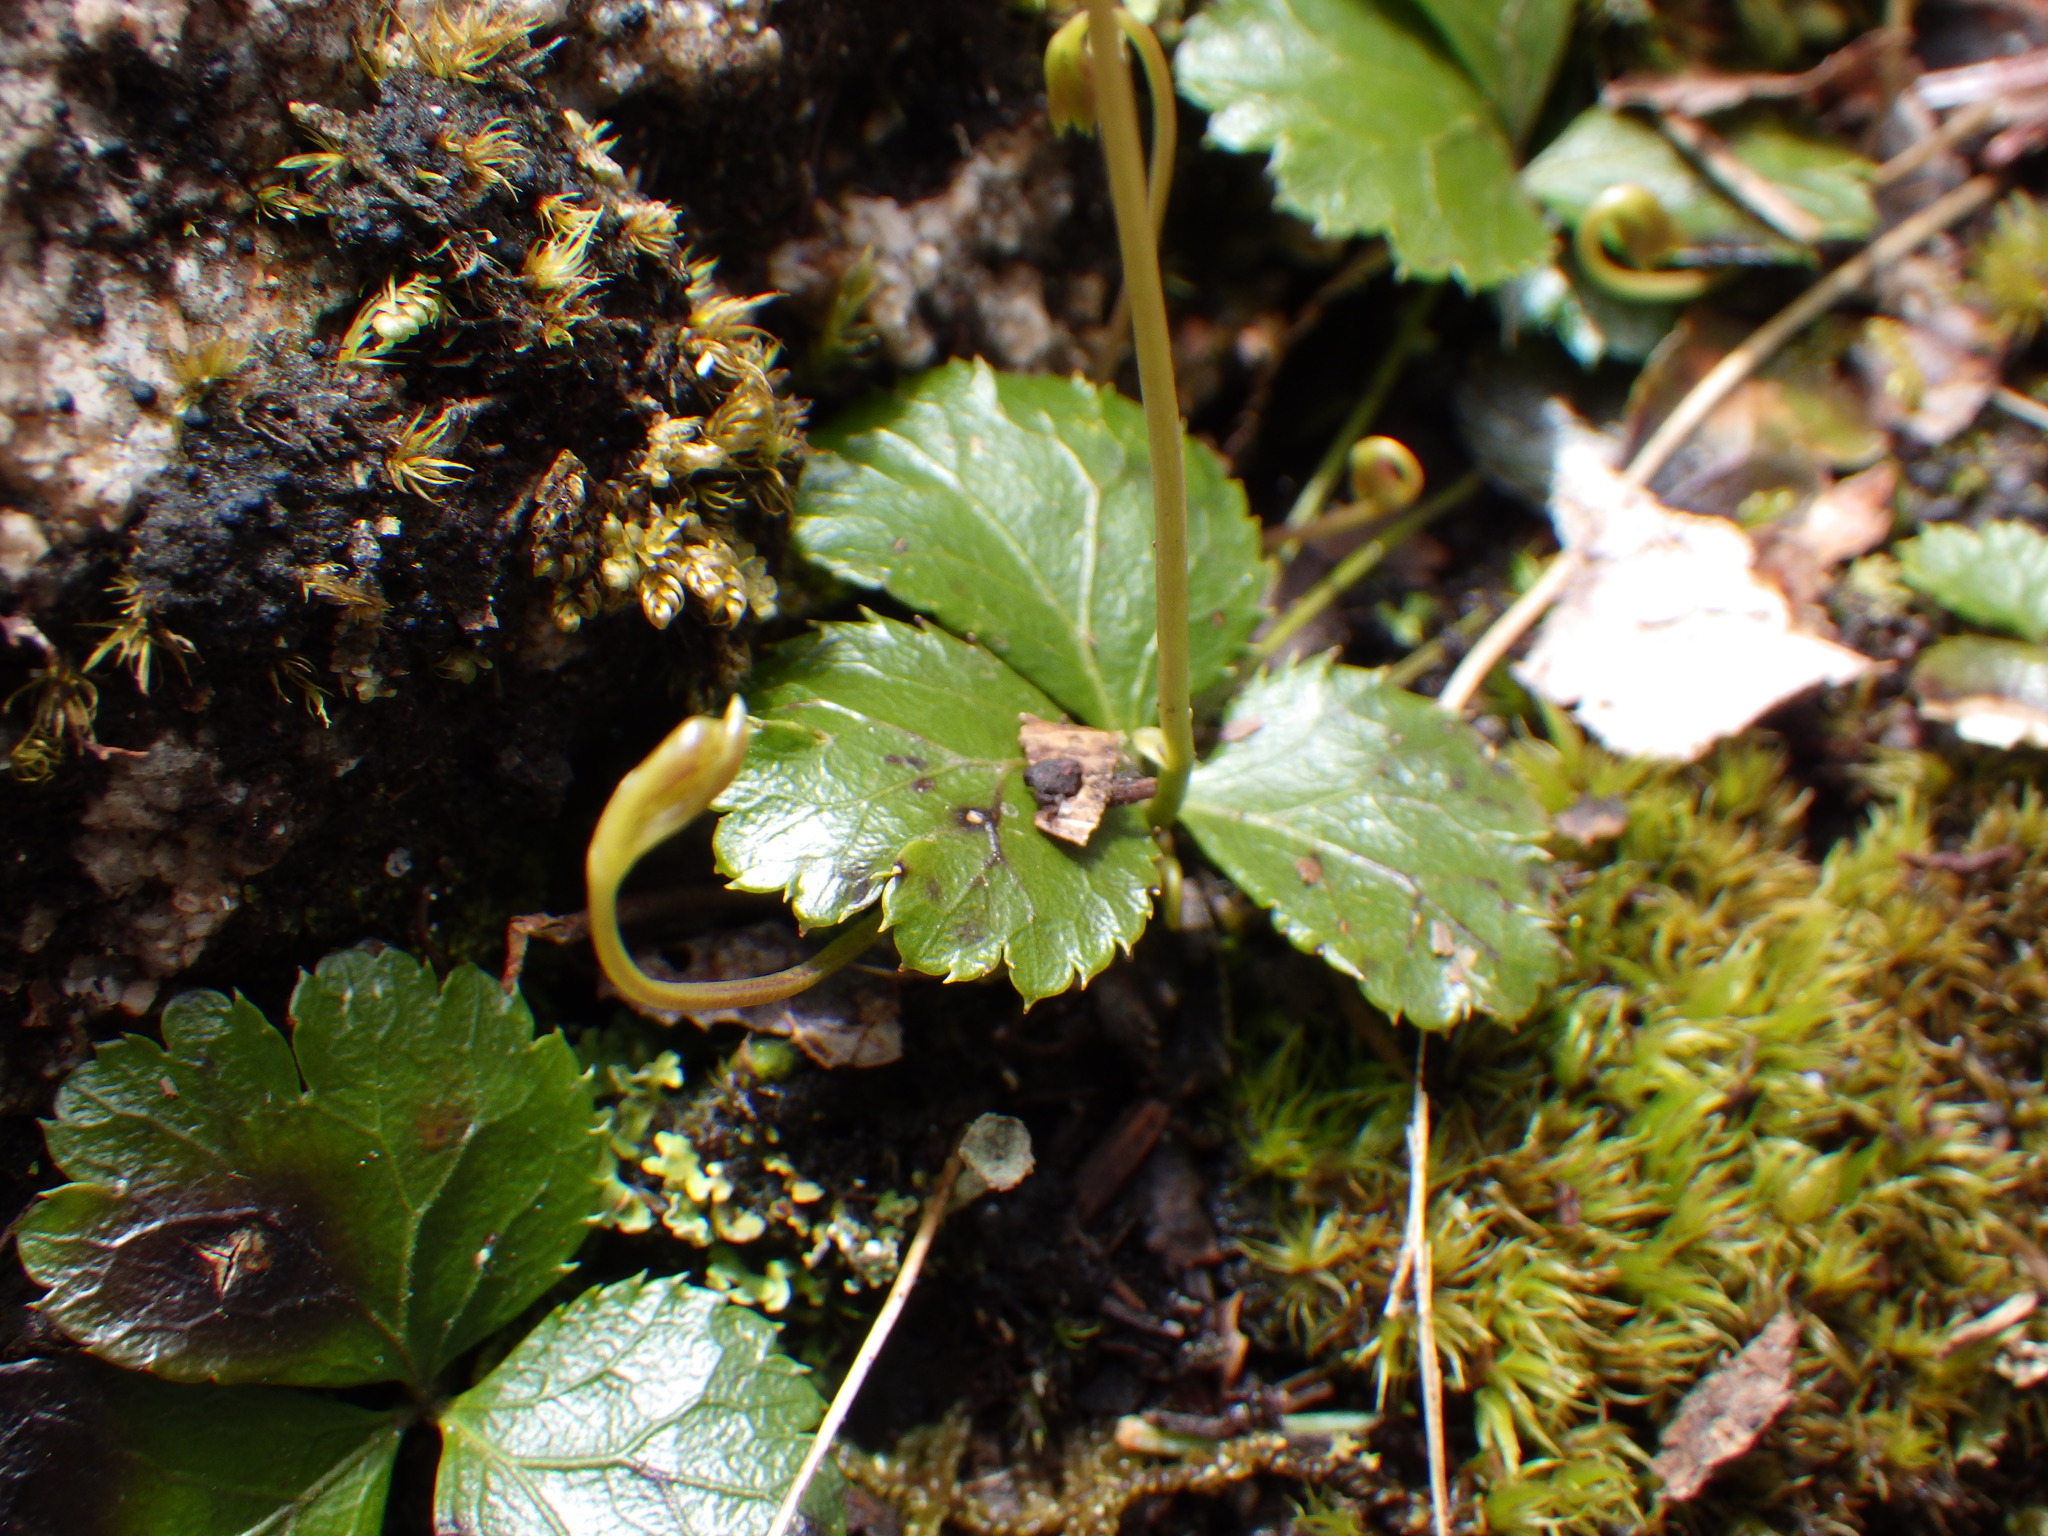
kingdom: Plantae
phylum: Tracheophyta
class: Magnoliopsida
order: Ranunculales
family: Ranunculaceae
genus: Coptis
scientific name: Coptis trifolia
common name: Canker-root
